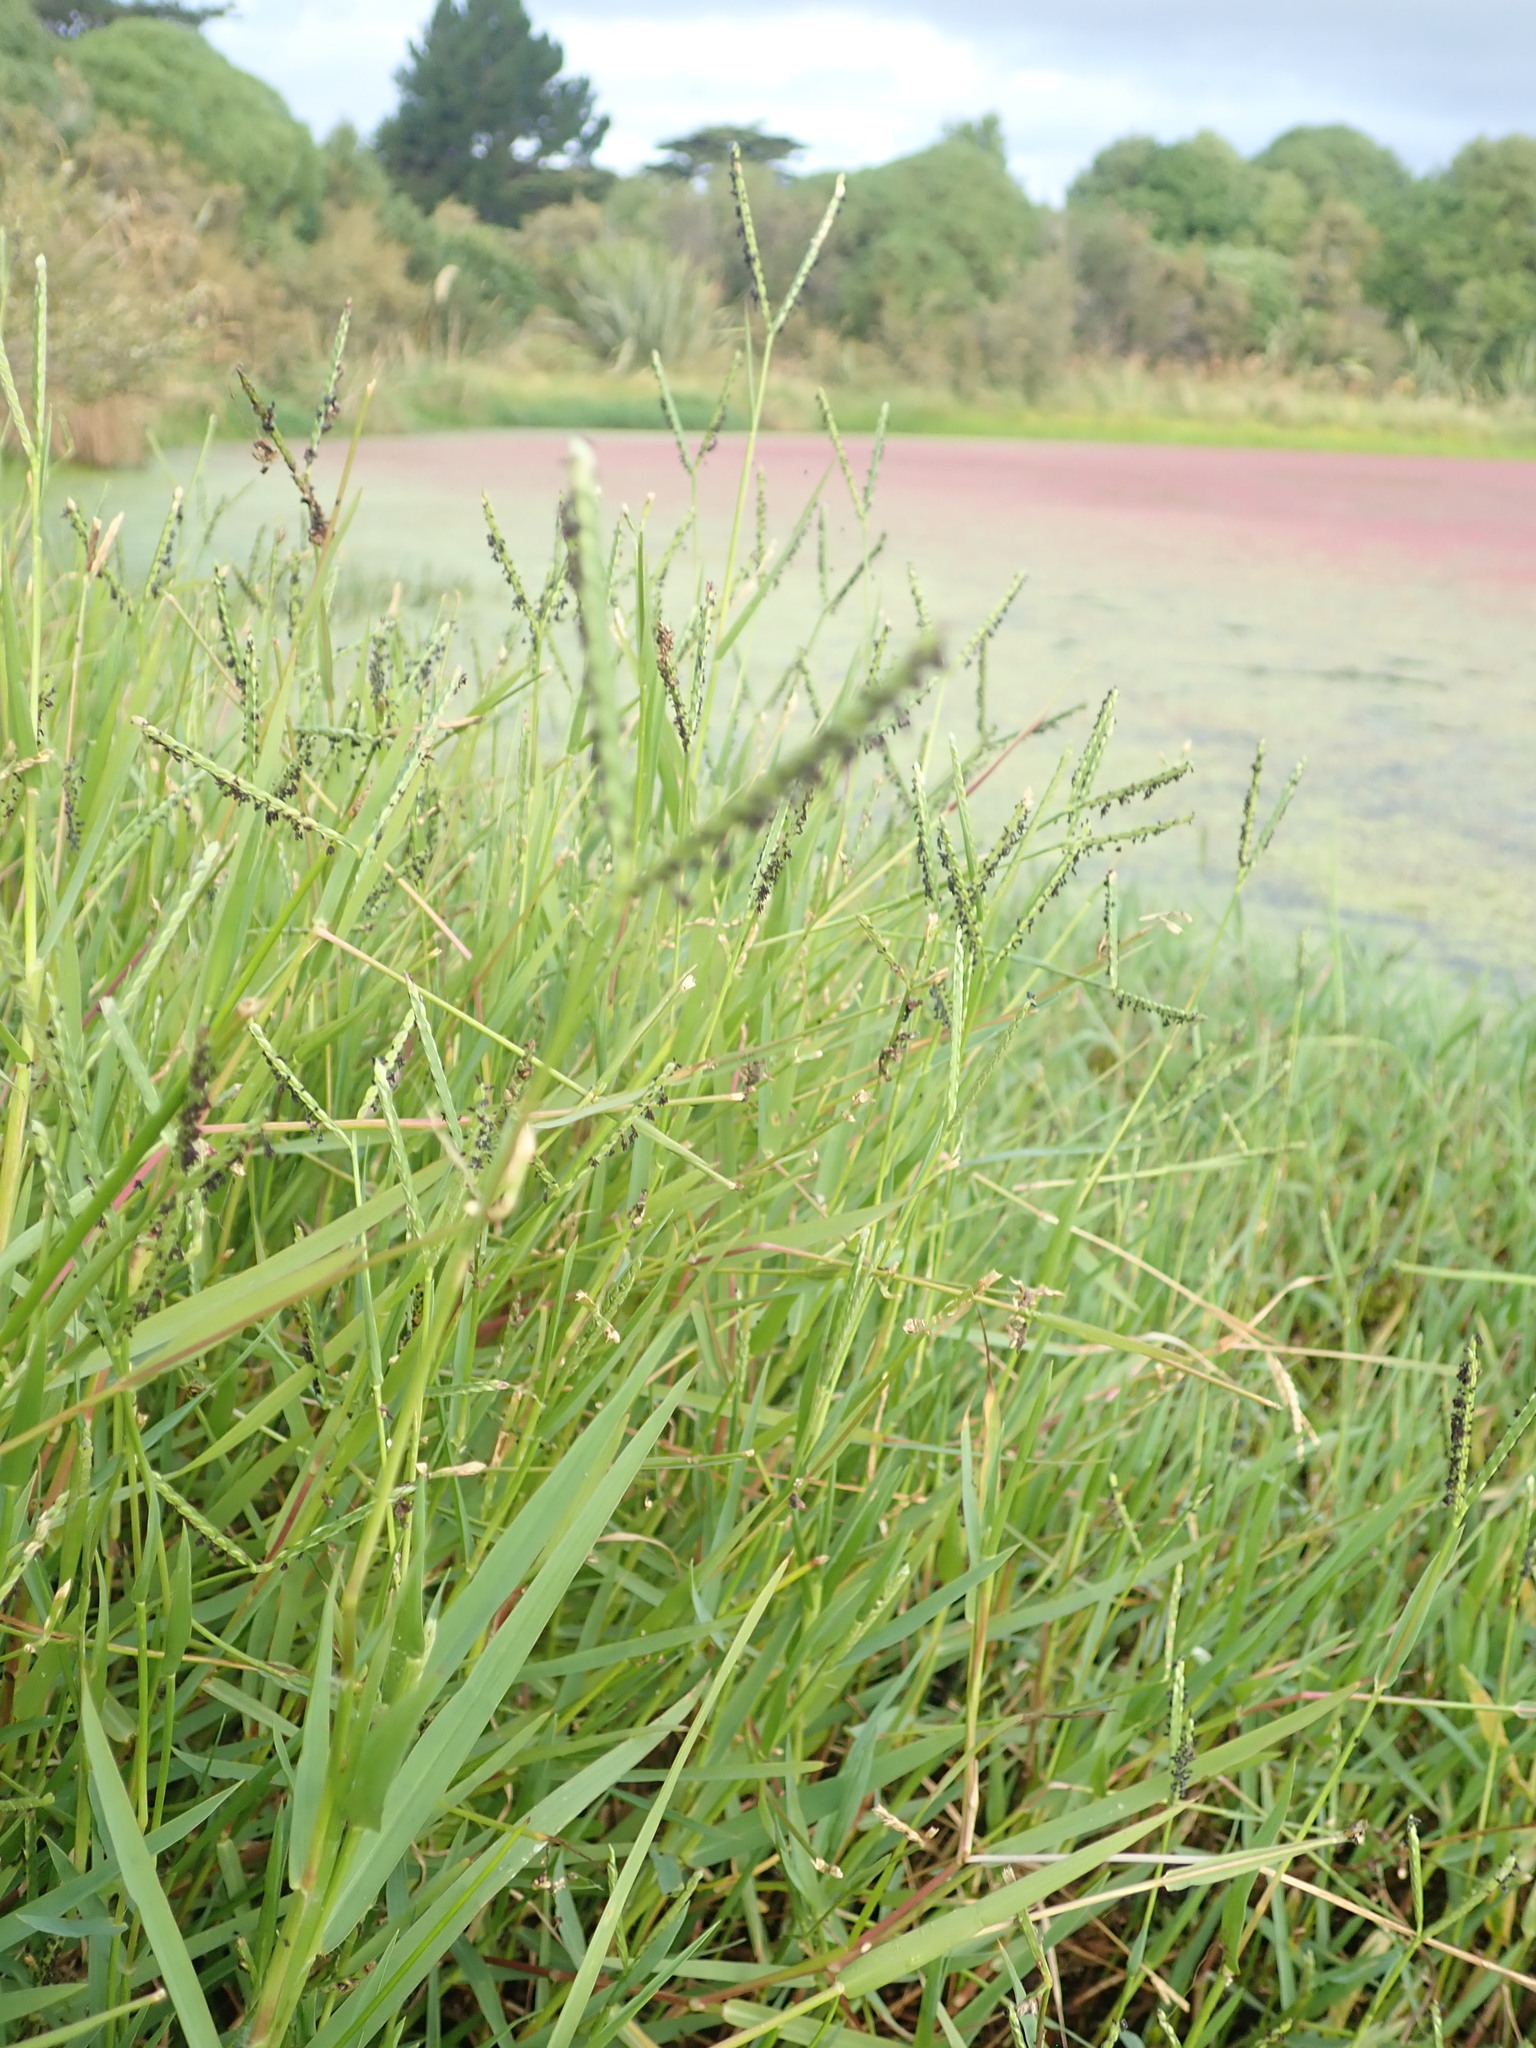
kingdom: Plantae
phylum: Tracheophyta
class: Liliopsida
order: Poales
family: Poaceae
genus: Paspalum
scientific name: Paspalum distichum
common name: Knotgrass
